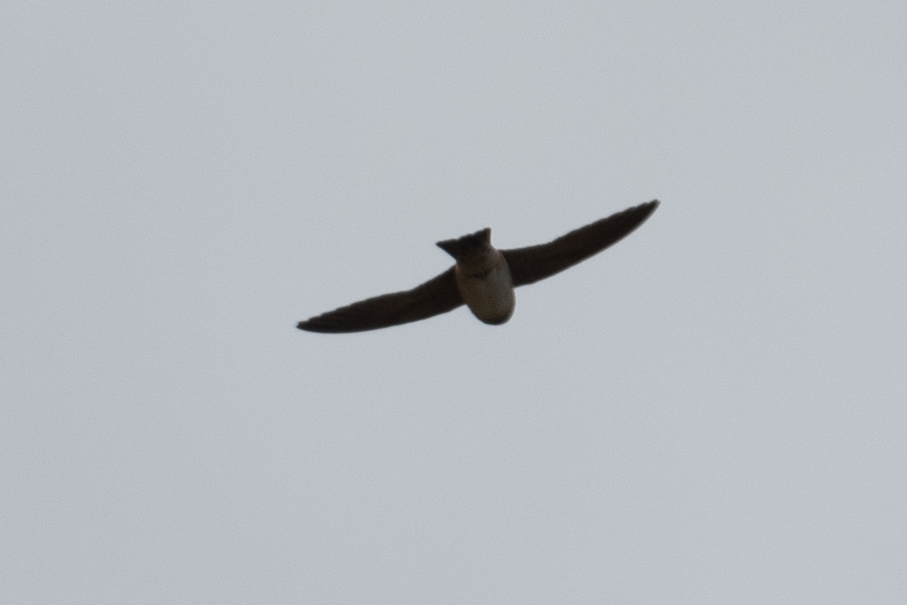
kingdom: Animalia
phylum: Chordata
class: Aves
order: Passeriformes
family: Hirundinidae
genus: Petrochelidon
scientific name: Petrochelidon pyrrhonota
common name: American cliff swallow
